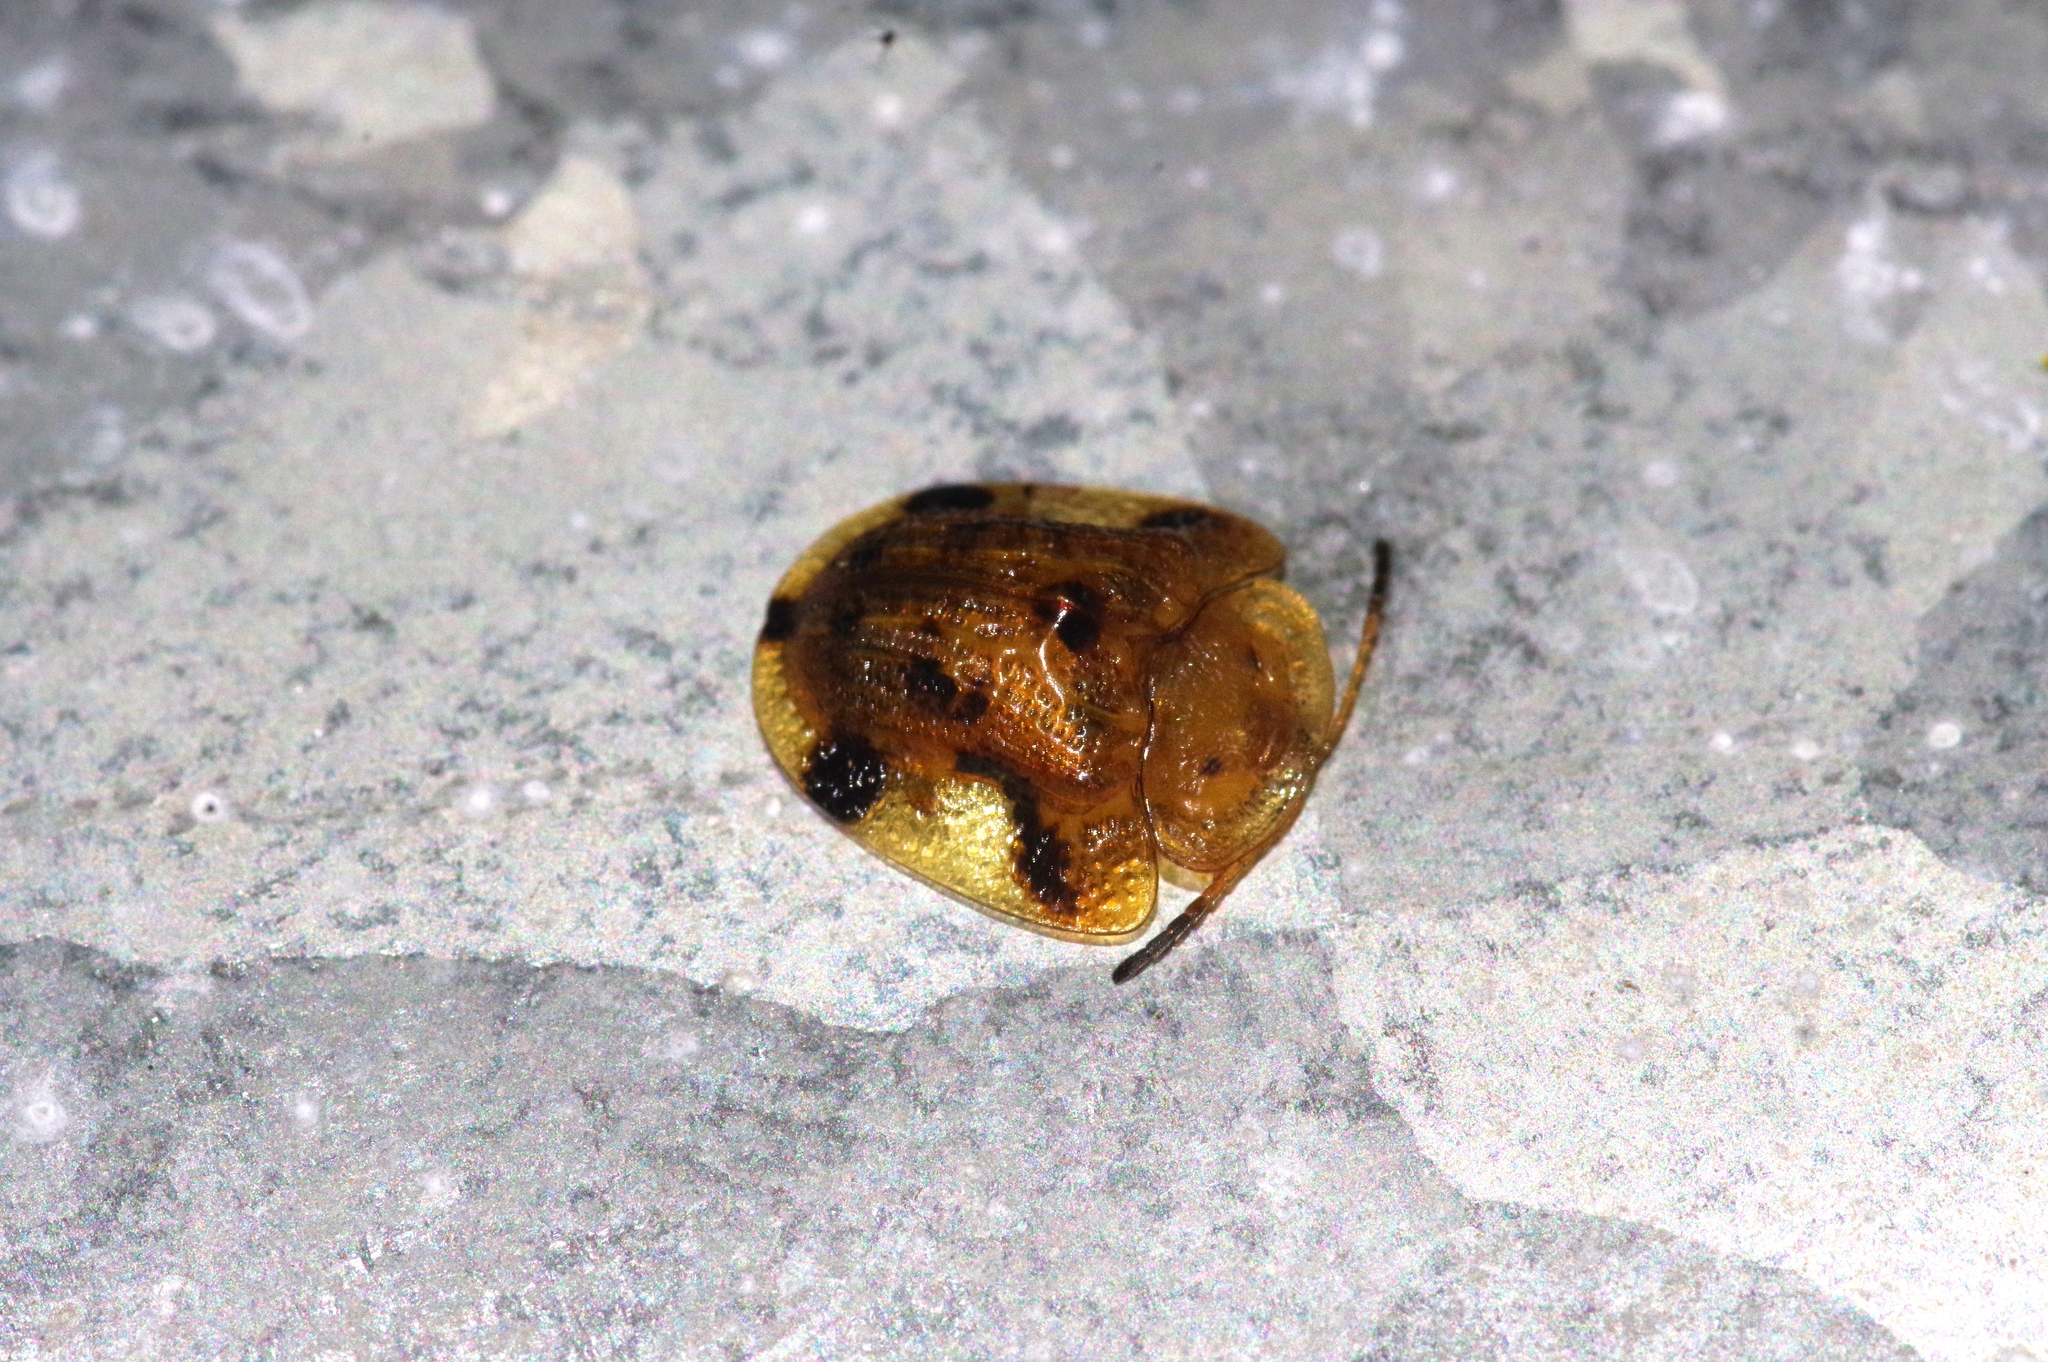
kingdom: Animalia
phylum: Arthropoda
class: Insecta
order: Coleoptera
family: Chrysomelidae
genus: Laccoptera
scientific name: Laccoptera nepalensis
